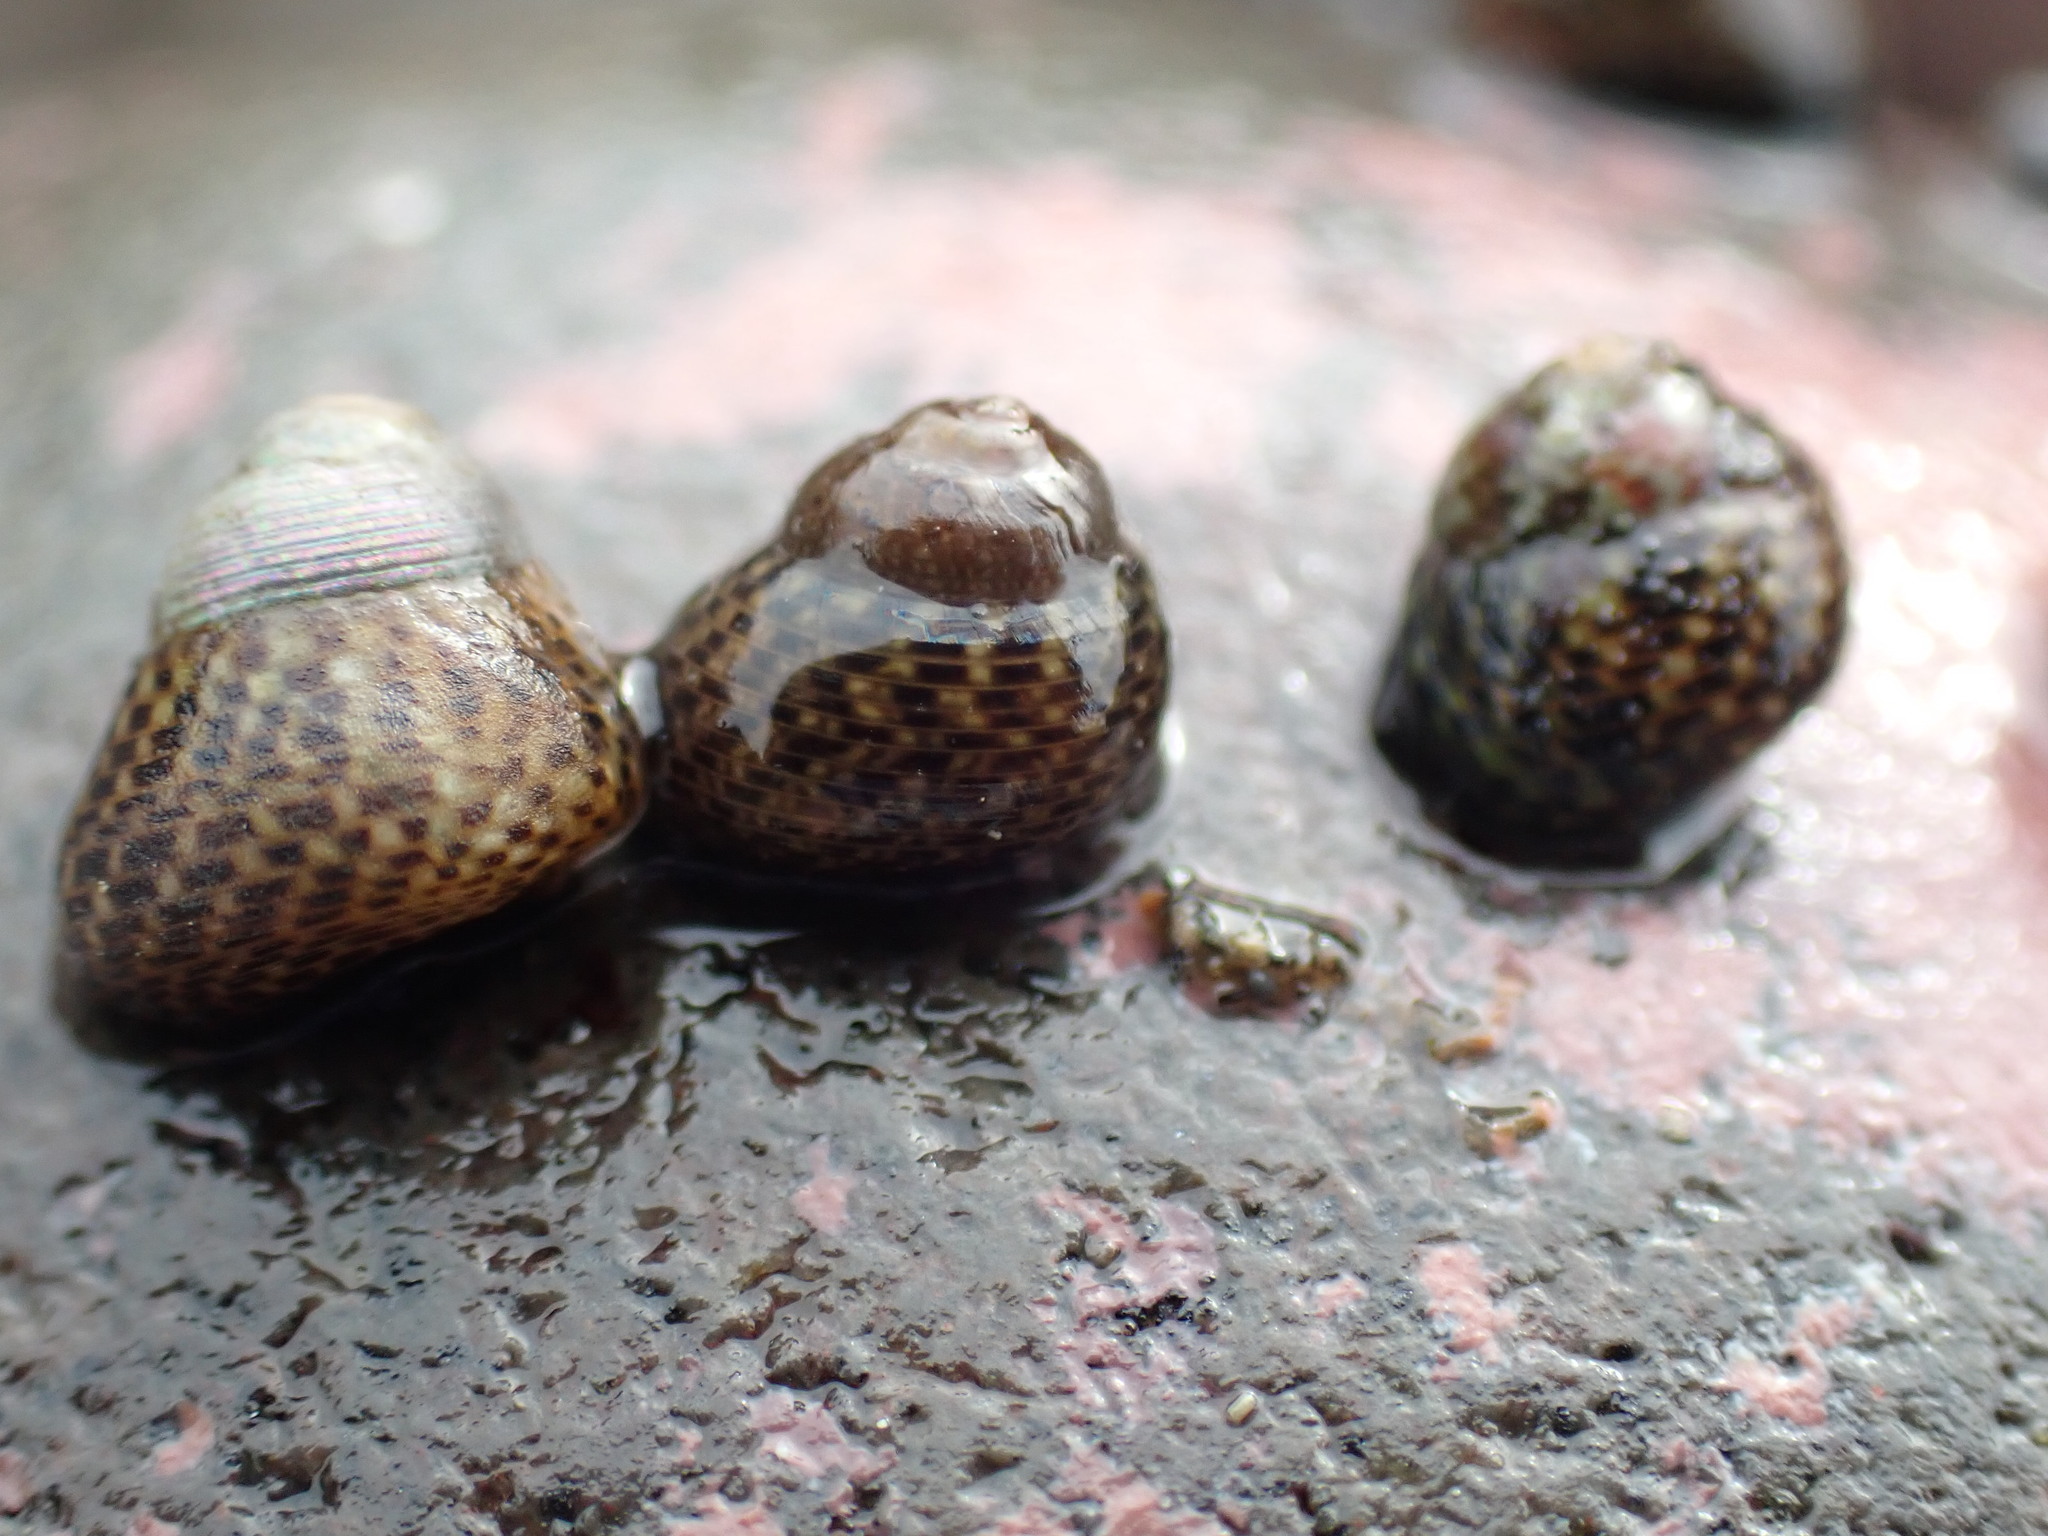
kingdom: Animalia
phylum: Mollusca
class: Gastropoda
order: Trochida
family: Trochidae
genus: Micrelenchus
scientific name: Micrelenchus tessellatus
